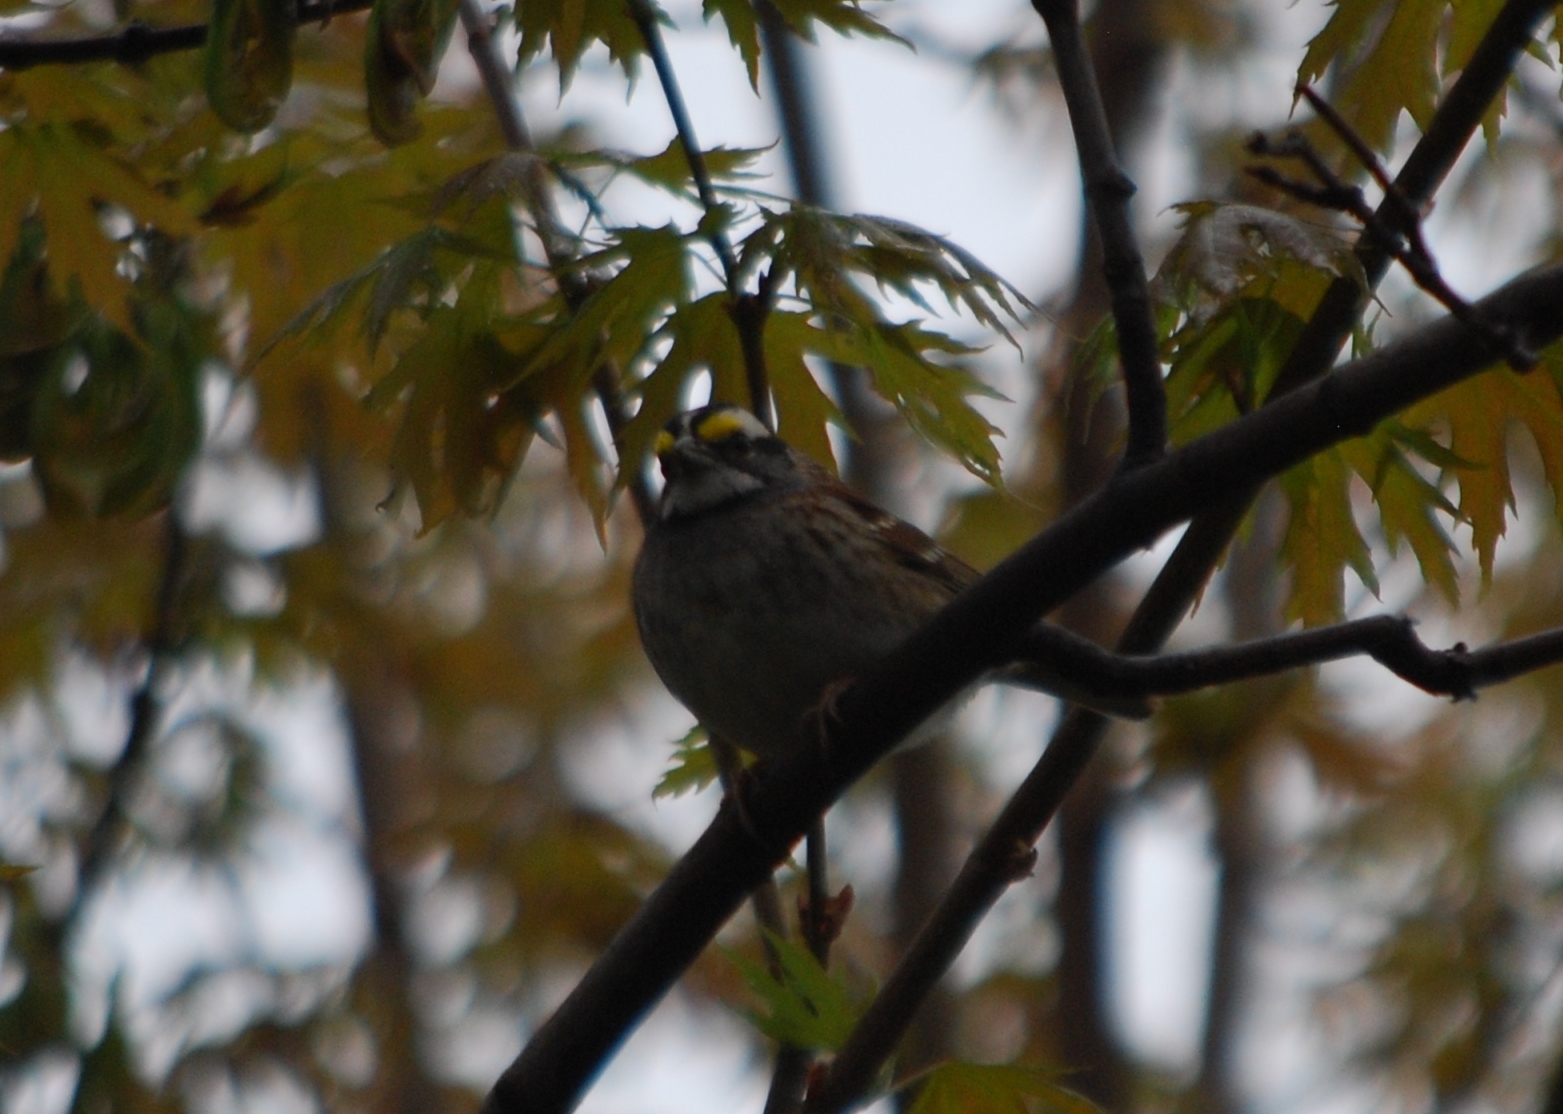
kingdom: Animalia
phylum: Chordata
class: Aves
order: Passeriformes
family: Passerellidae
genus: Zonotrichia
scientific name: Zonotrichia albicollis
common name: White-throated sparrow
